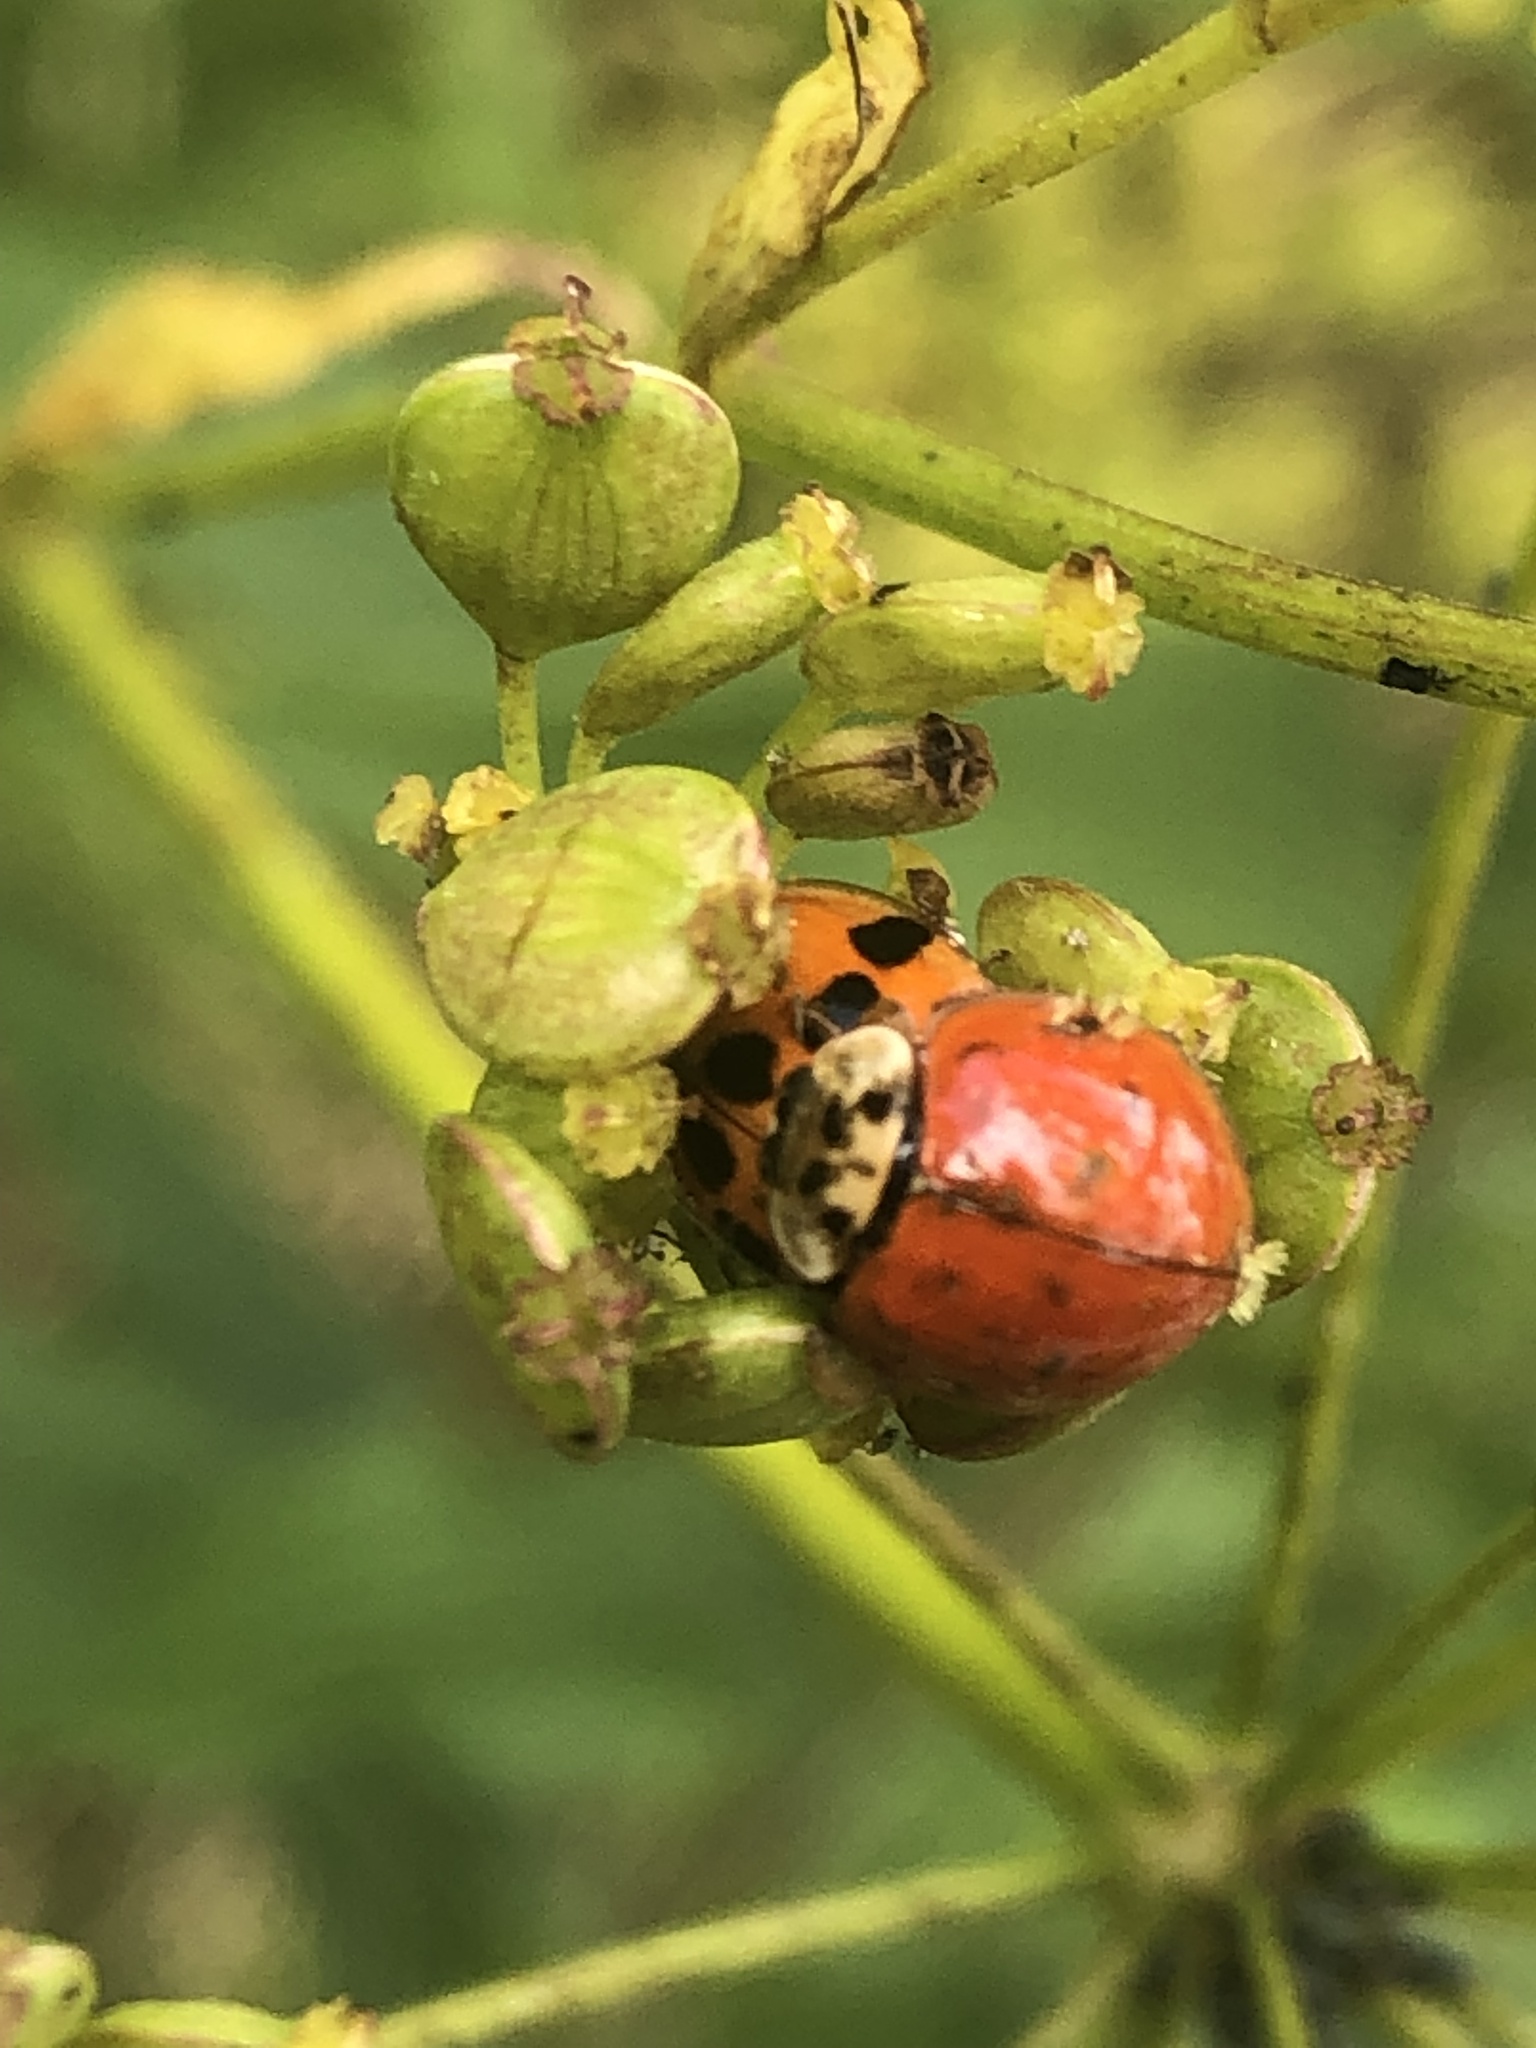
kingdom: Animalia
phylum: Arthropoda
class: Insecta
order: Coleoptera
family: Coccinellidae
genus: Harmonia
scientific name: Harmonia axyridis
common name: Harlequin ladybird
